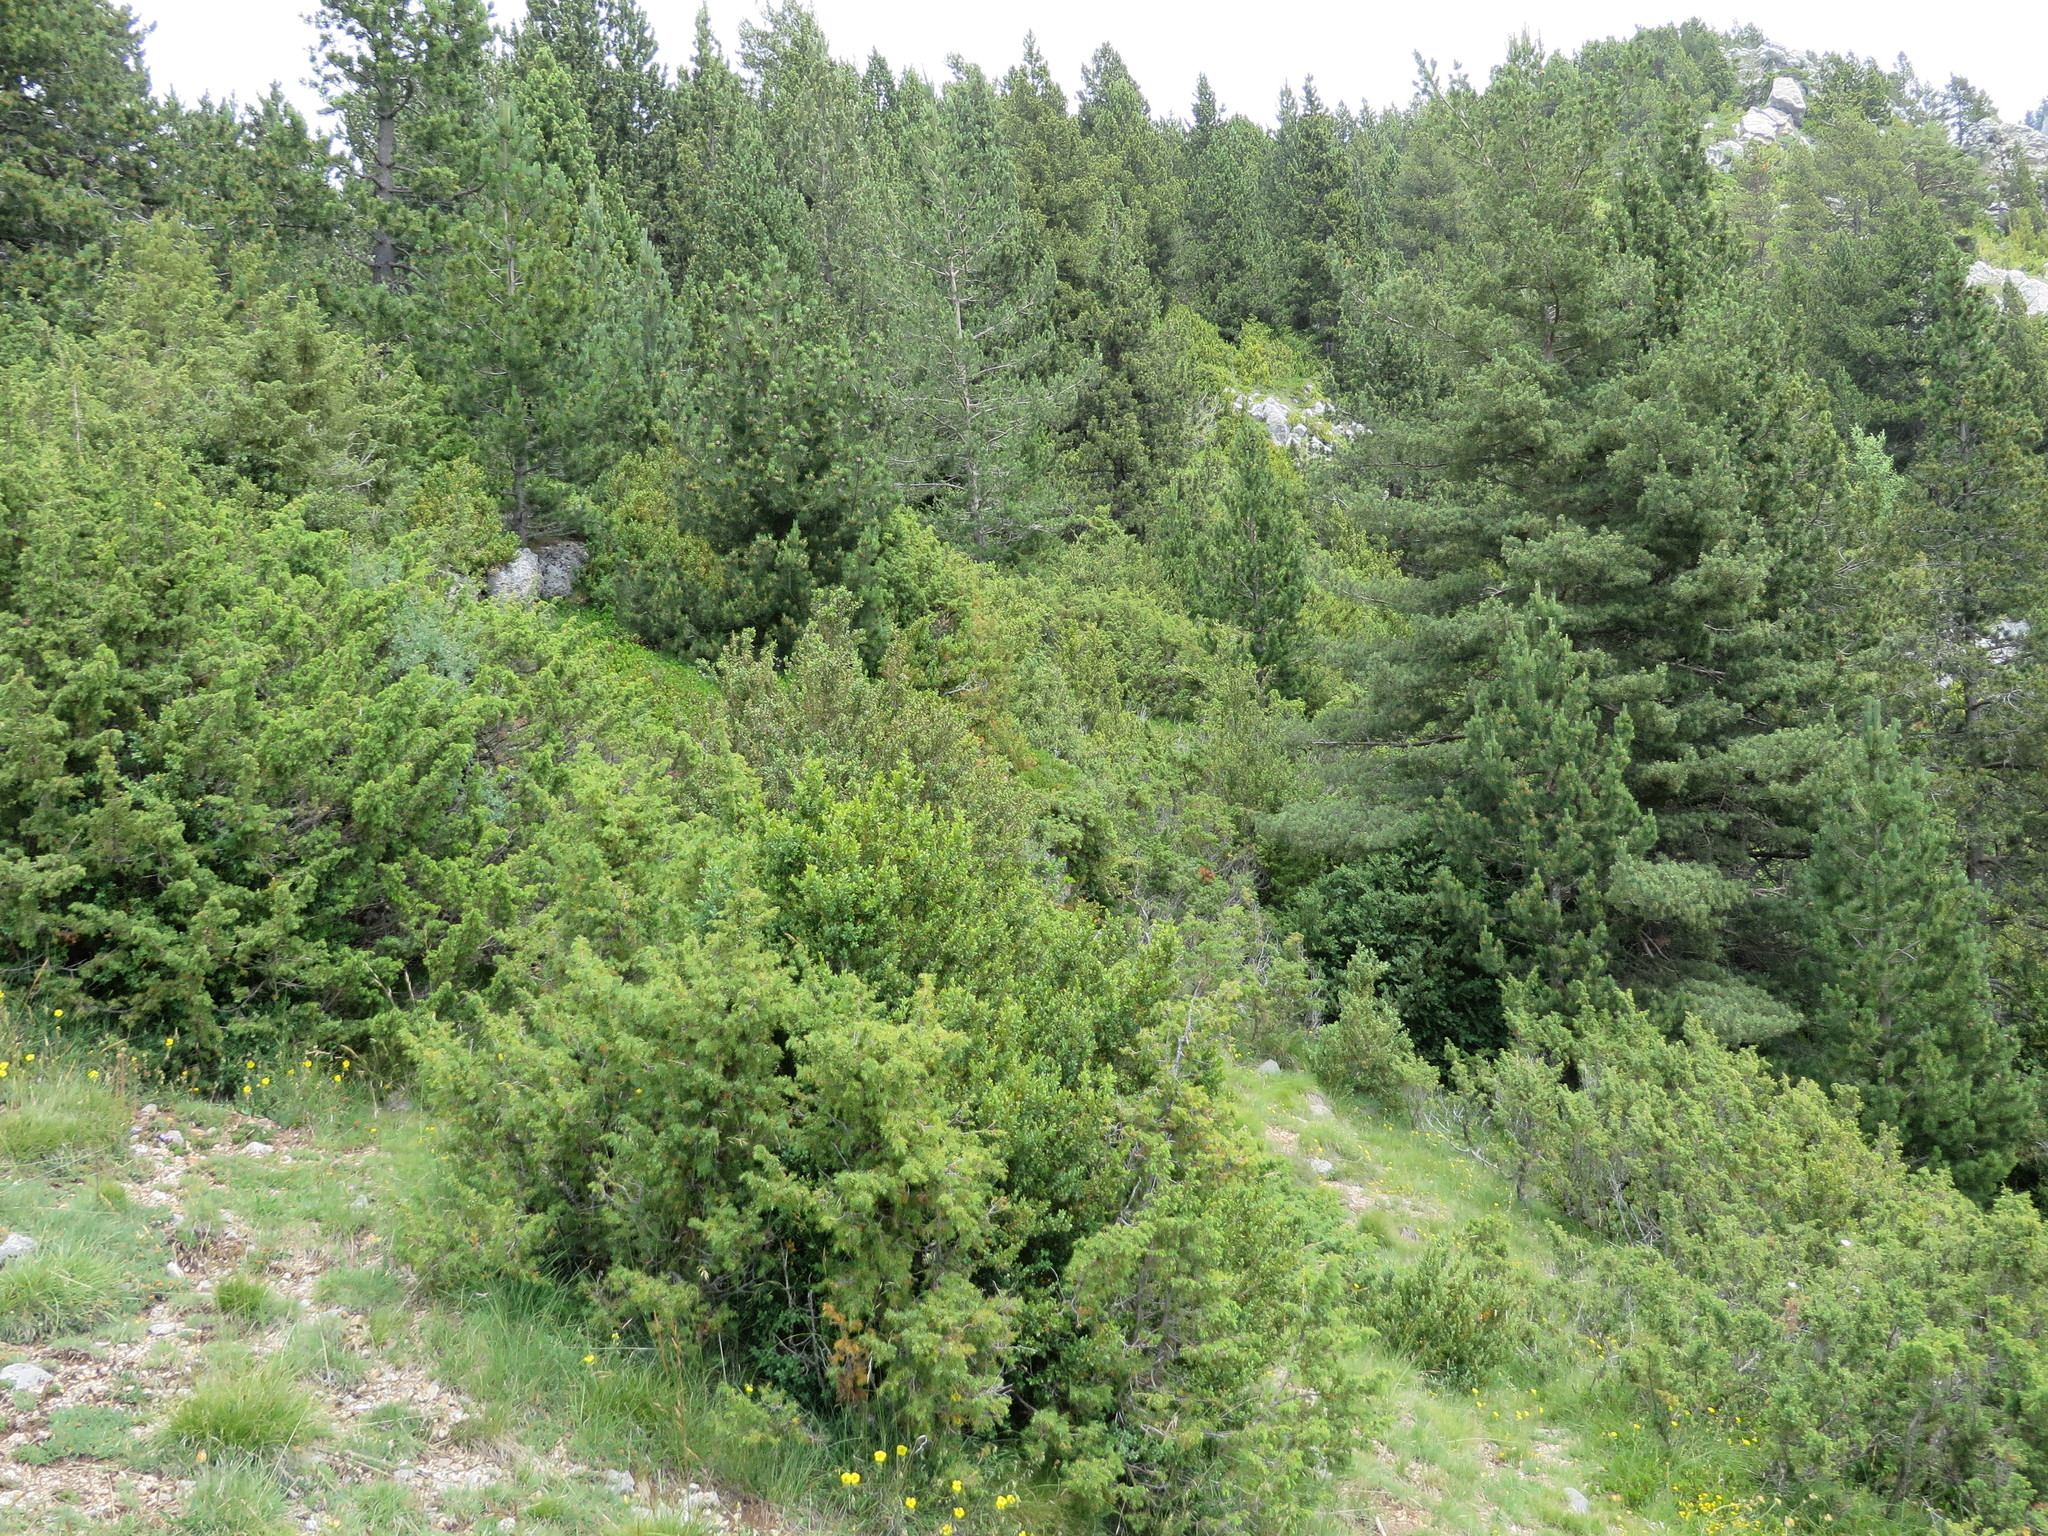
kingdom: Plantae
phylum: Tracheophyta
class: Pinopsida
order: Pinales
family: Cupressaceae
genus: Juniperus
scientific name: Juniperus communis
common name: Common juniper
